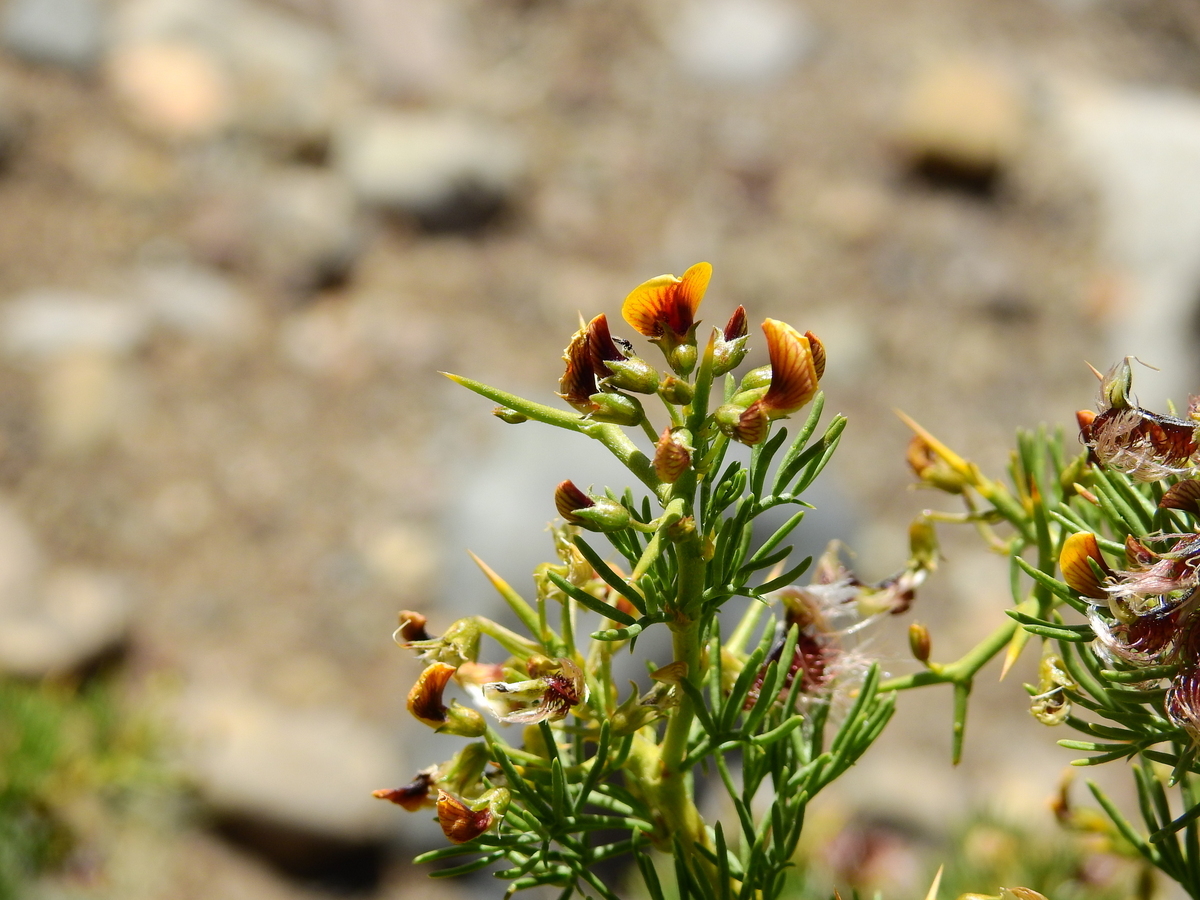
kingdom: Plantae
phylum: Tracheophyta
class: Magnoliopsida
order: Fabales
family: Fabaceae
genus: Adesmia
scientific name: Adesmia pinifolia
